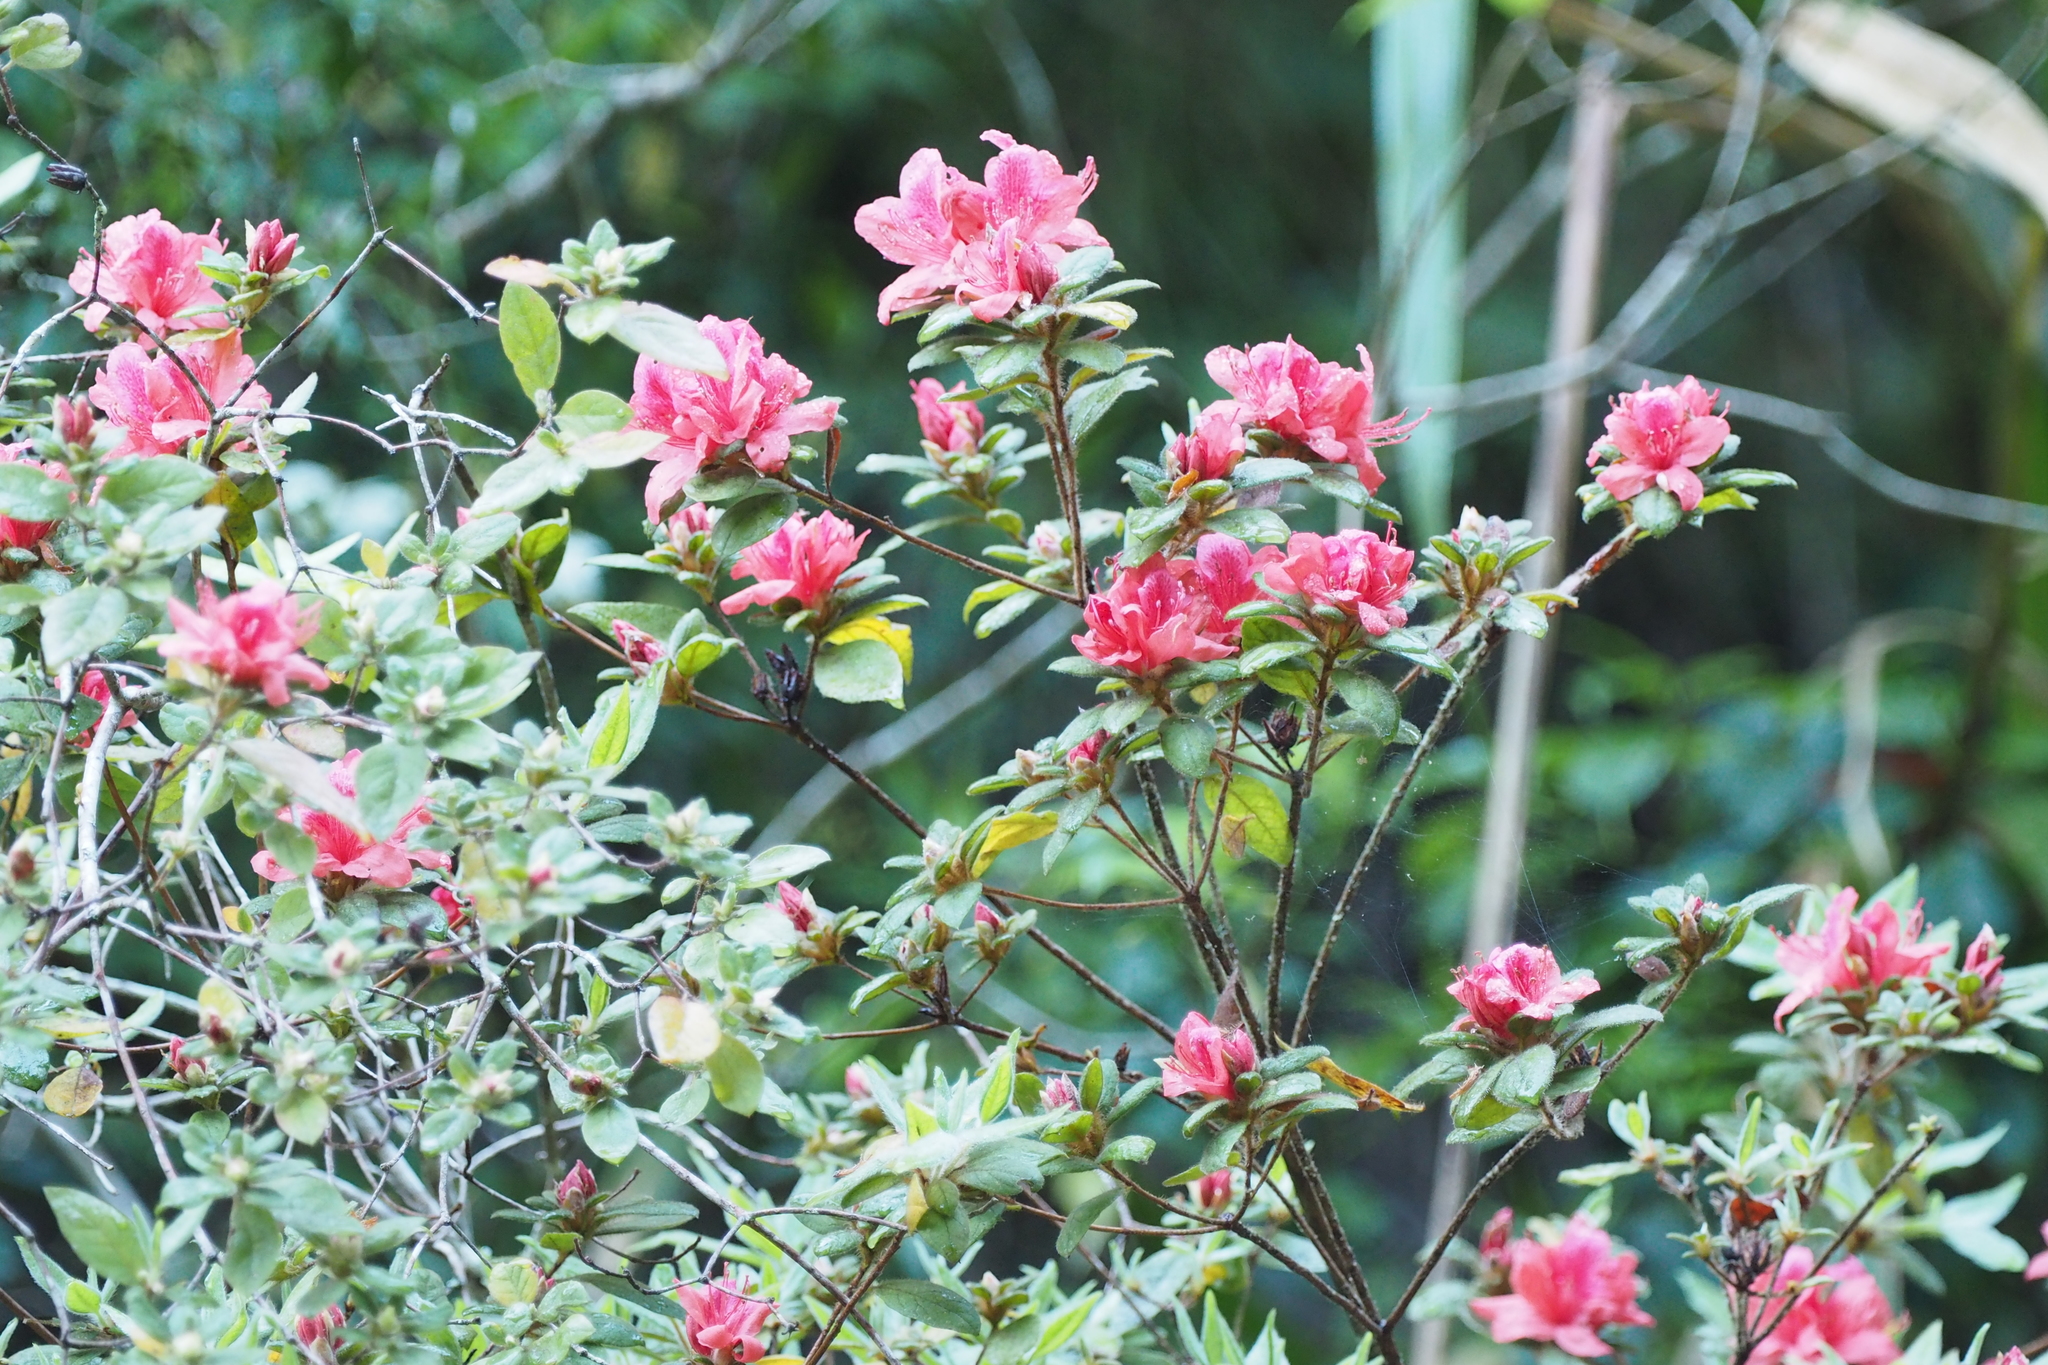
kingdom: Plantae
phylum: Tracheophyta
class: Magnoliopsida
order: Ericales
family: Ericaceae
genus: Rhododendron
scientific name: Rhododendron oldhamii
